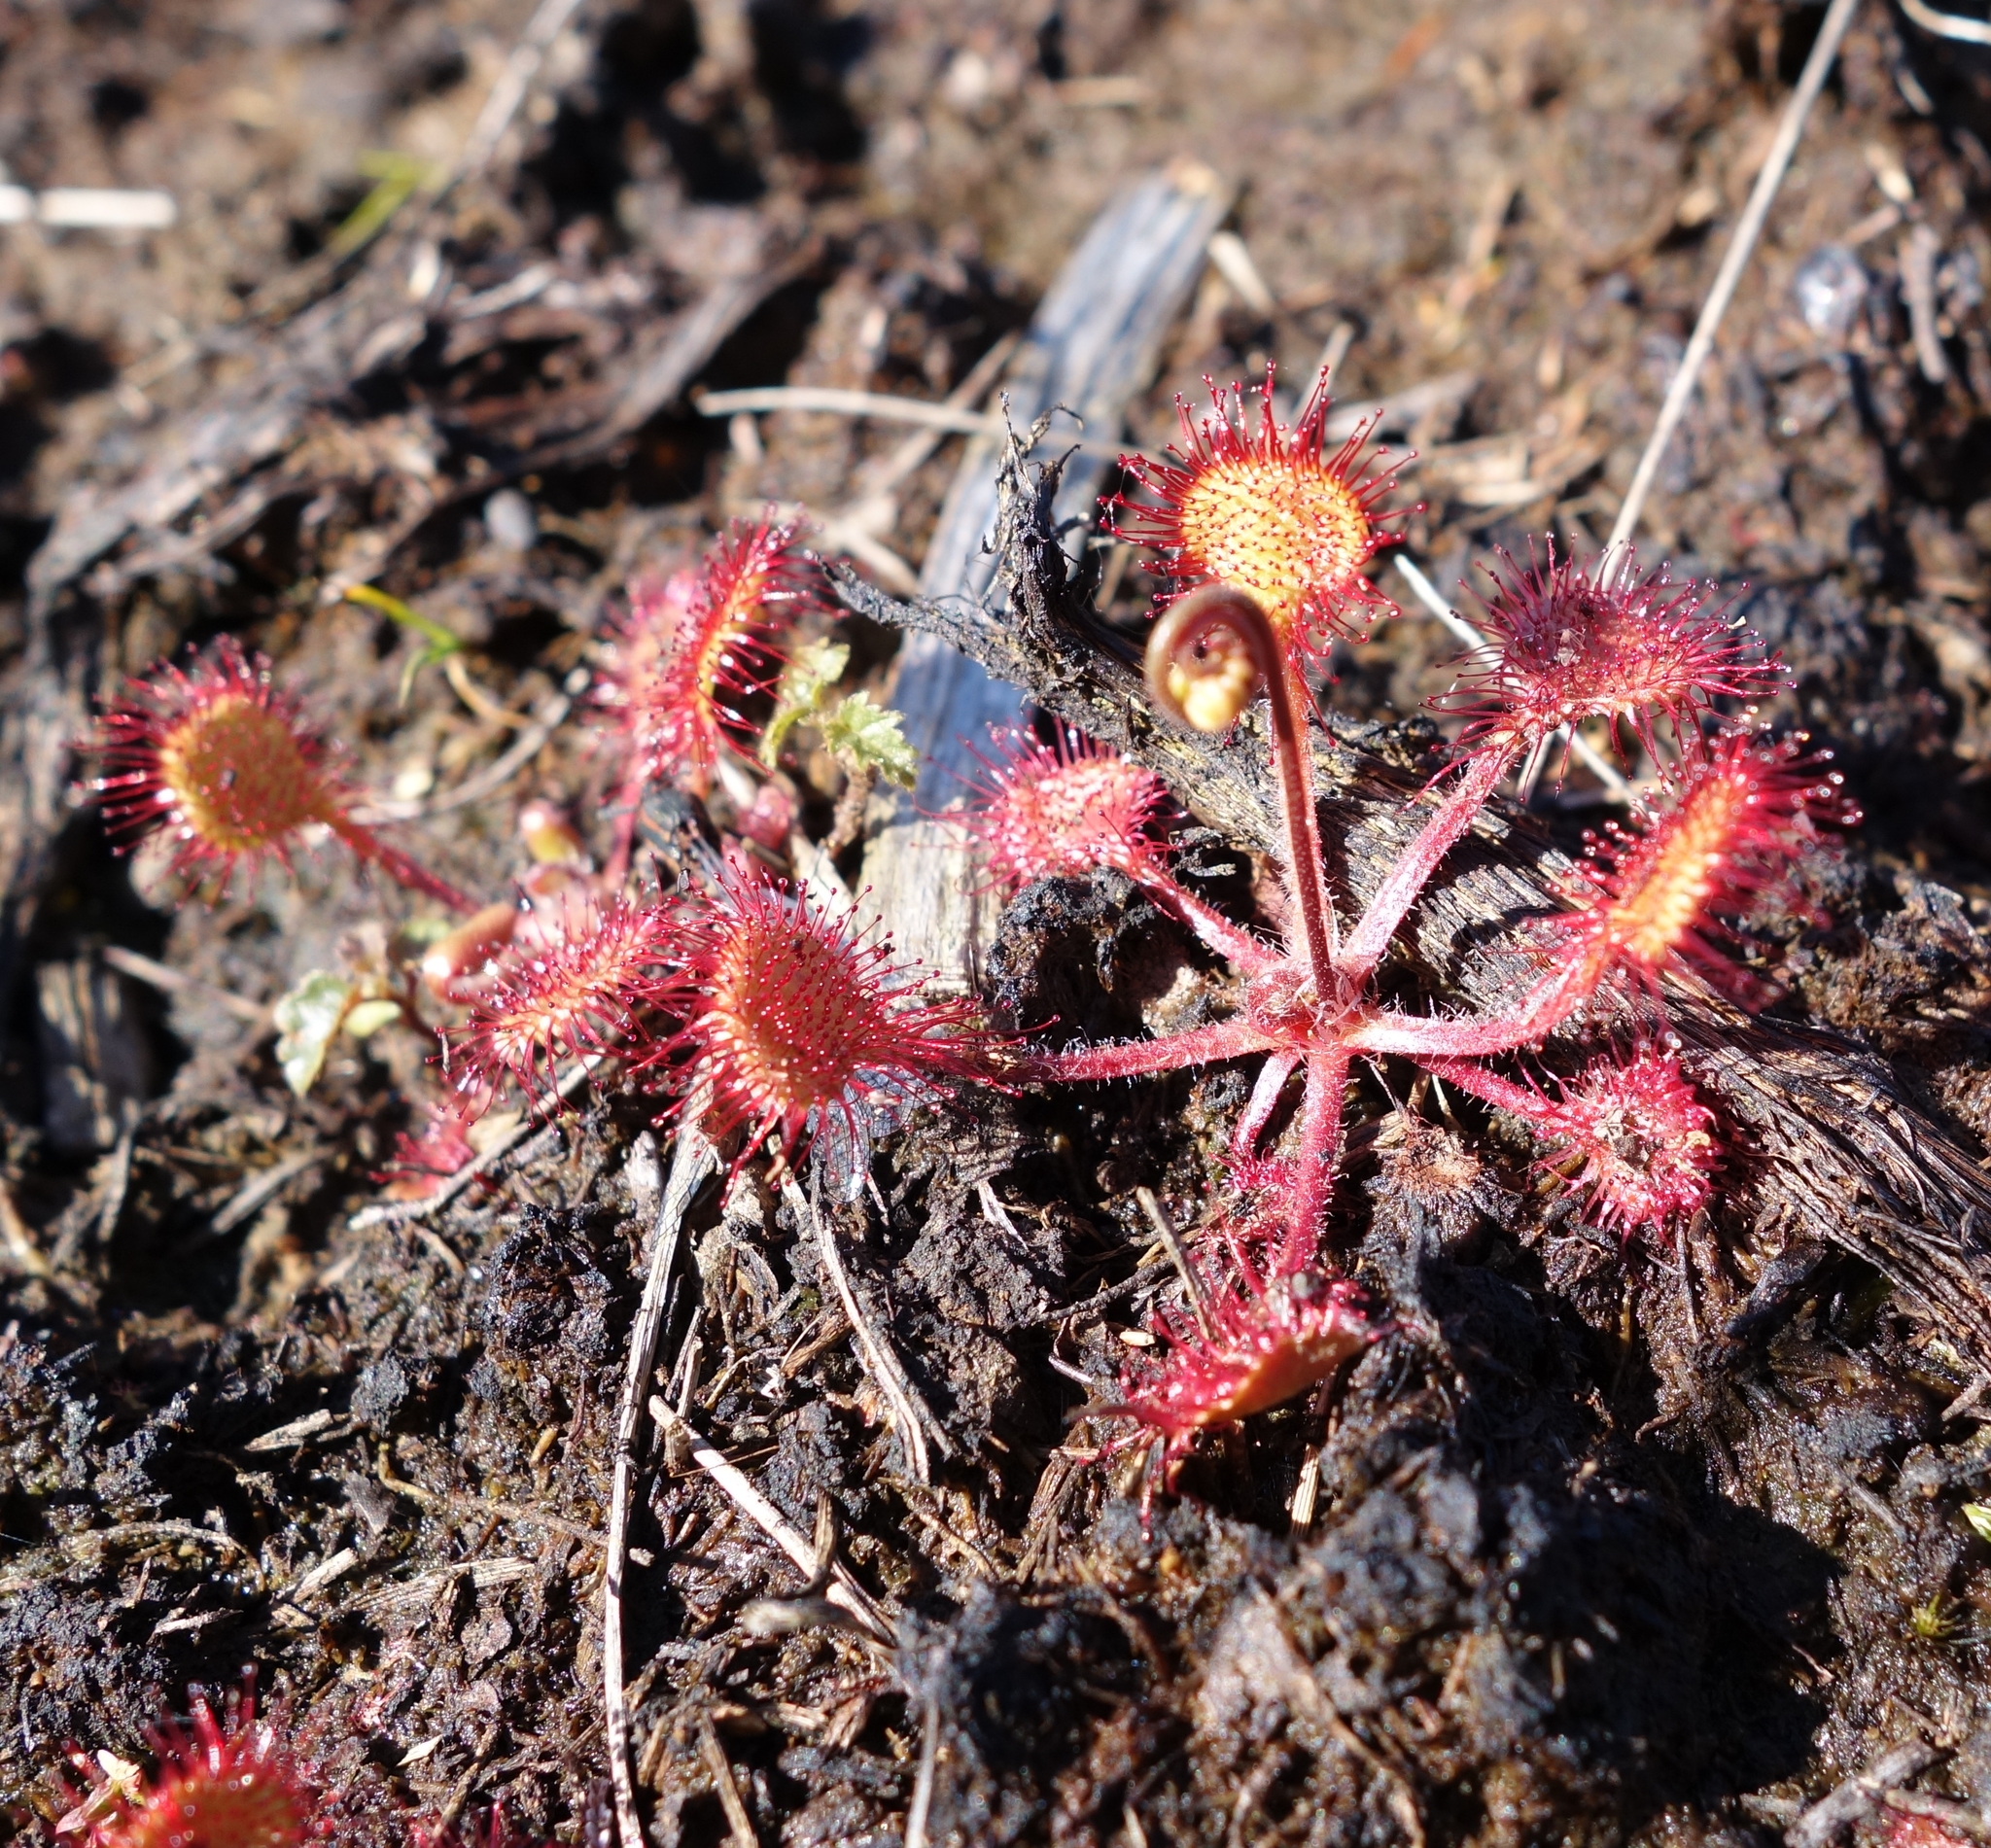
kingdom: Plantae
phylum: Tracheophyta
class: Magnoliopsida
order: Caryophyllales
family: Droseraceae
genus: Drosera
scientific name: Drosera rotundifolia
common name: Round-leaved sundew
